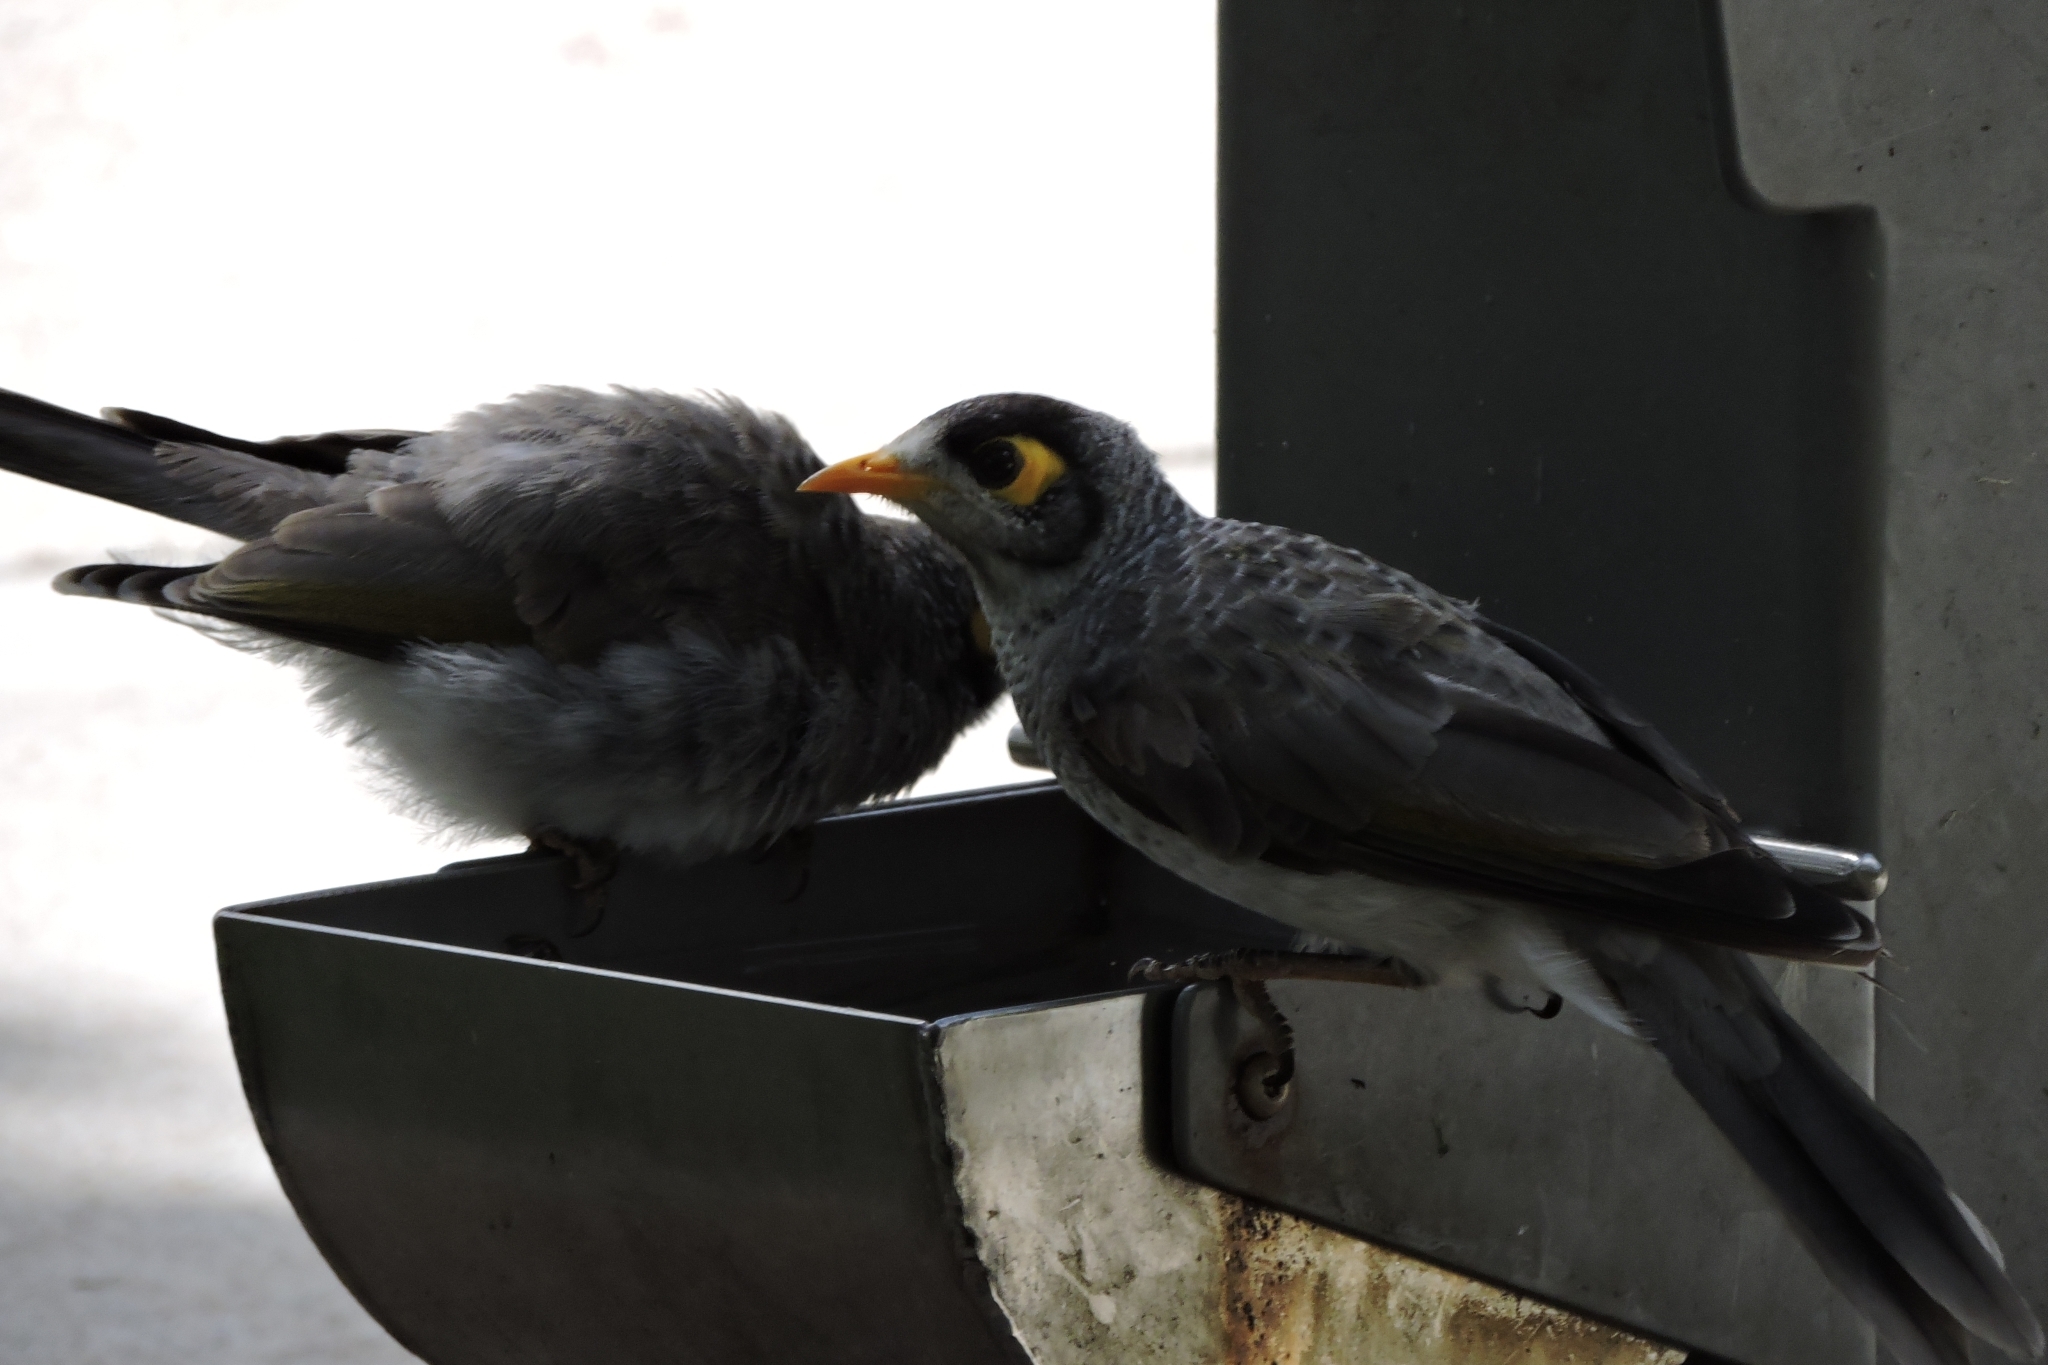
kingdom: Animalia
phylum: Chordata
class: Aves
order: Passeriformes
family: Meliphagidae
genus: Manorina
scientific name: Manorina melanocephala
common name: Noisy miner
